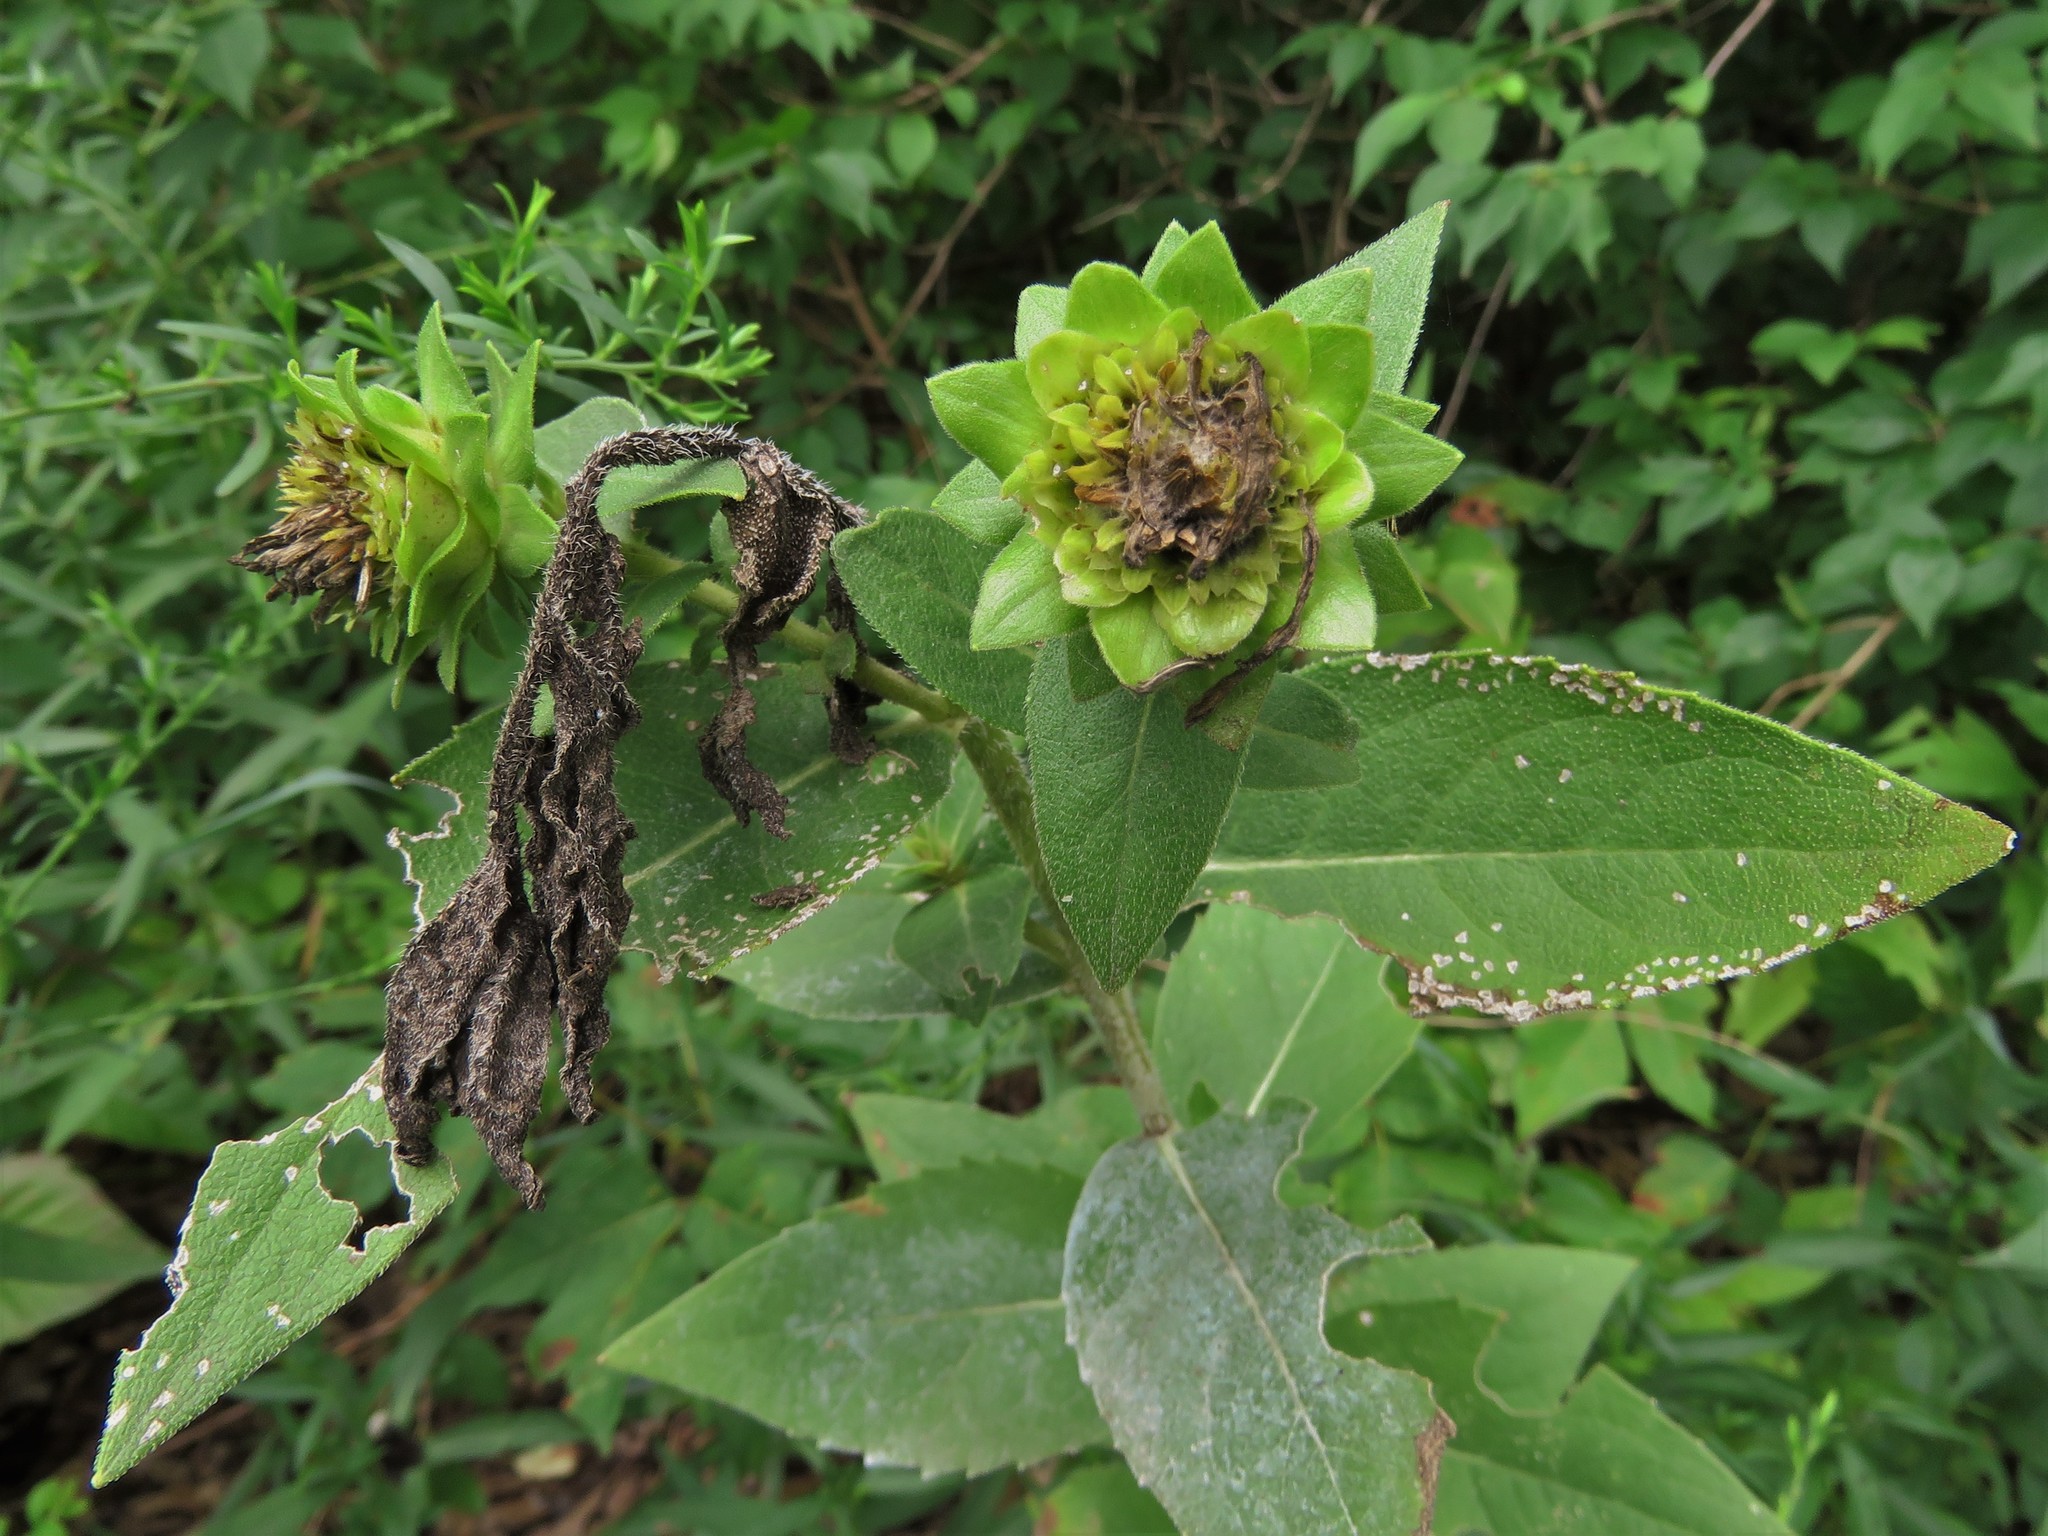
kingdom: Plantae
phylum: Tracheophyta
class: Magnoliopsida
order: Asterales
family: Asteraceae
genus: Silphium
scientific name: Silphium radula
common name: Roughleaf rosinweed
